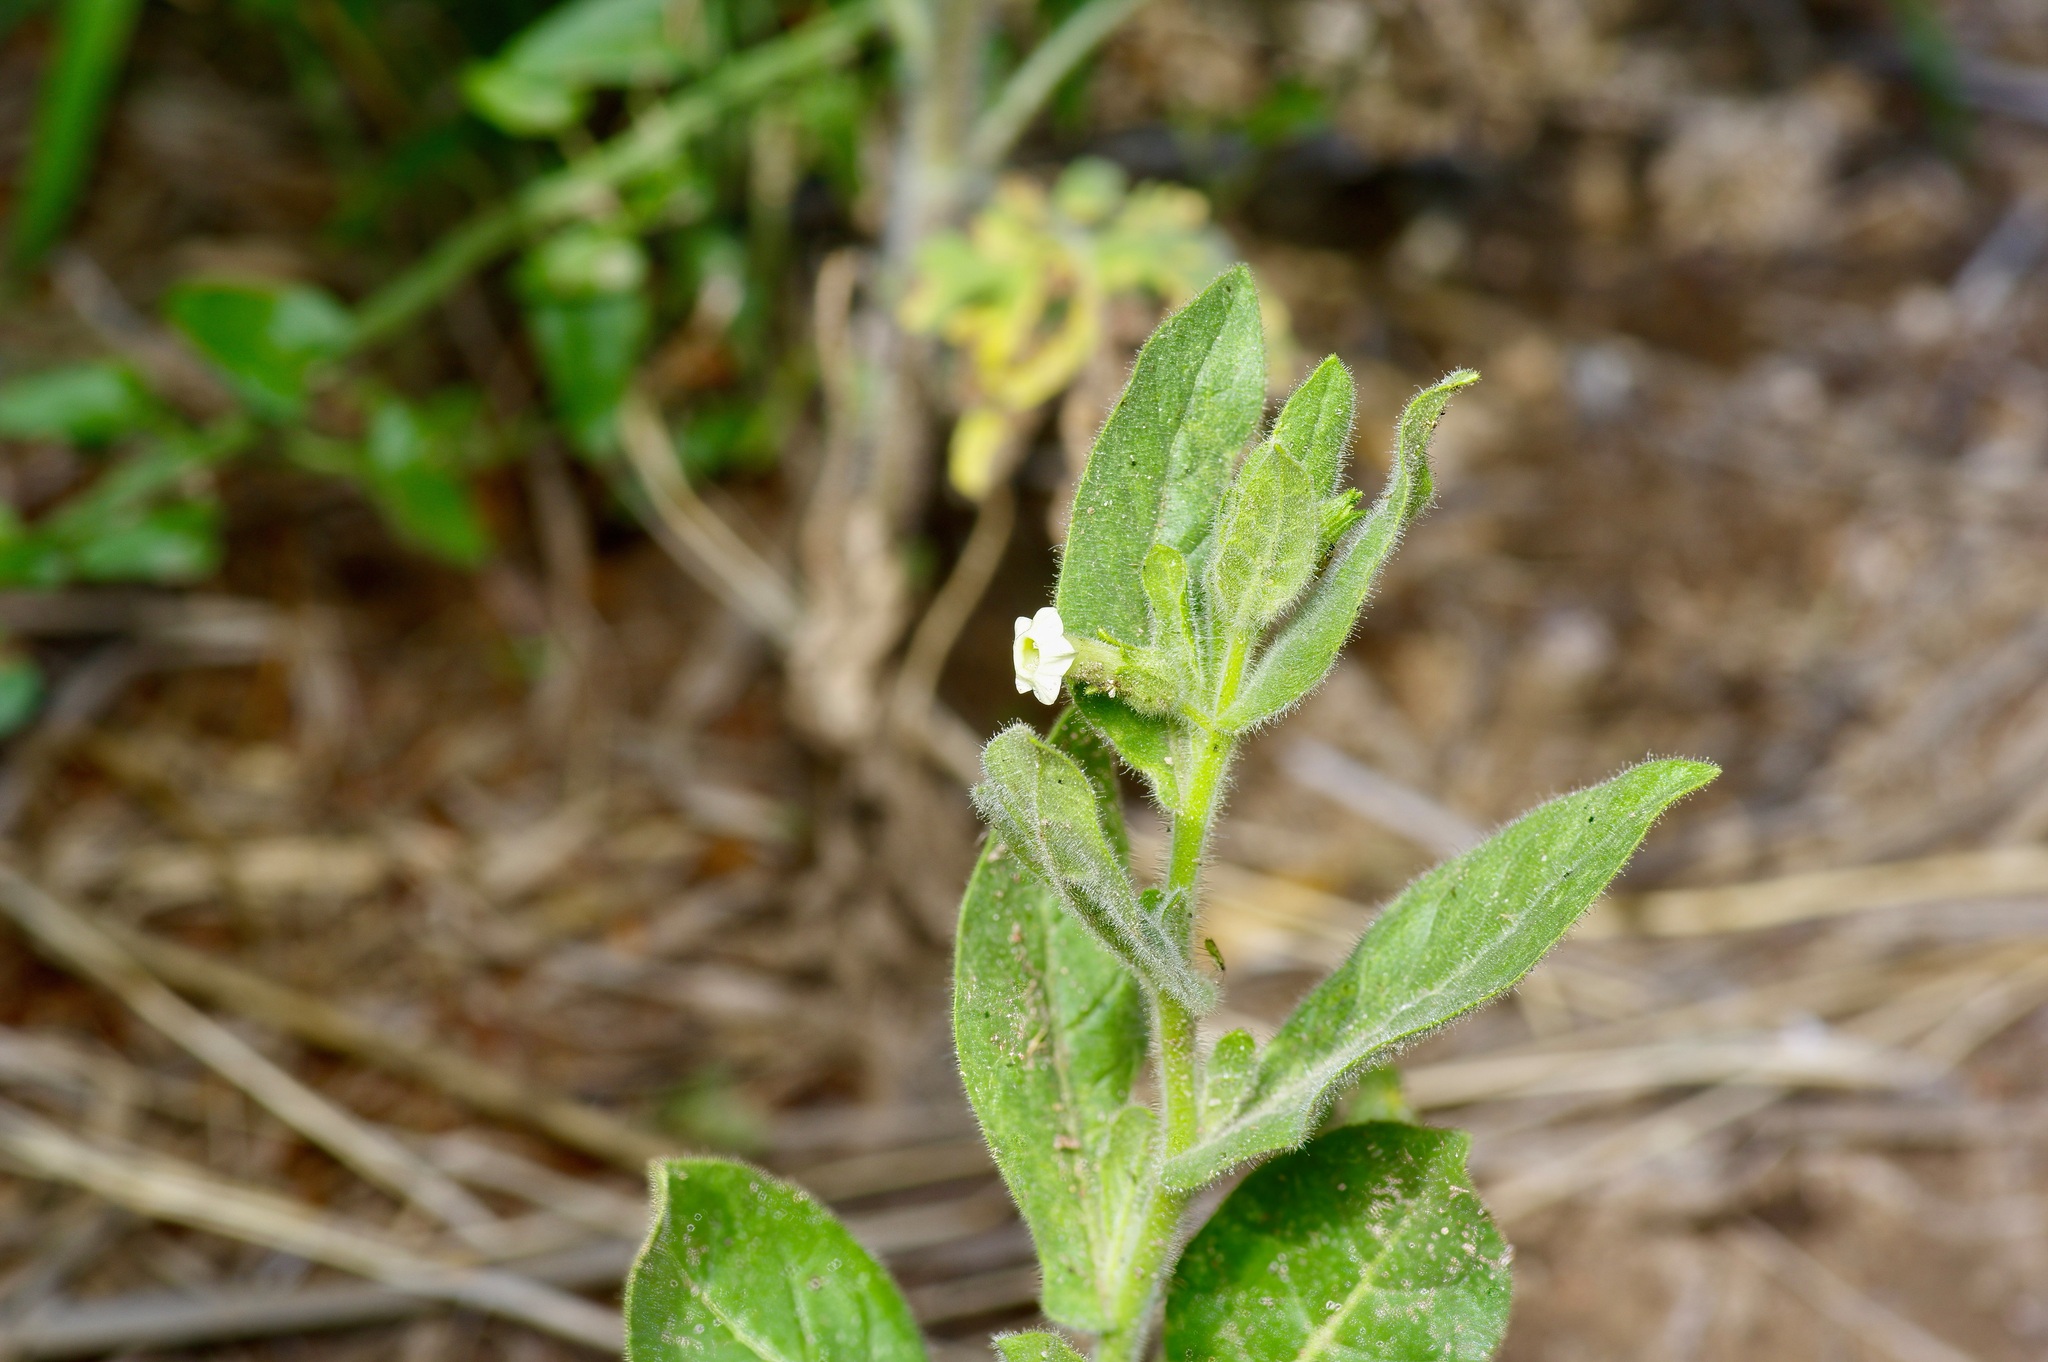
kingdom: Plantae
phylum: Tracheophyta
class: Magnoliopsida
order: Solanales
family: Solanaceae
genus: Nicotiana
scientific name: Nicotiana obtusifolia
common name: Desert tobacco
